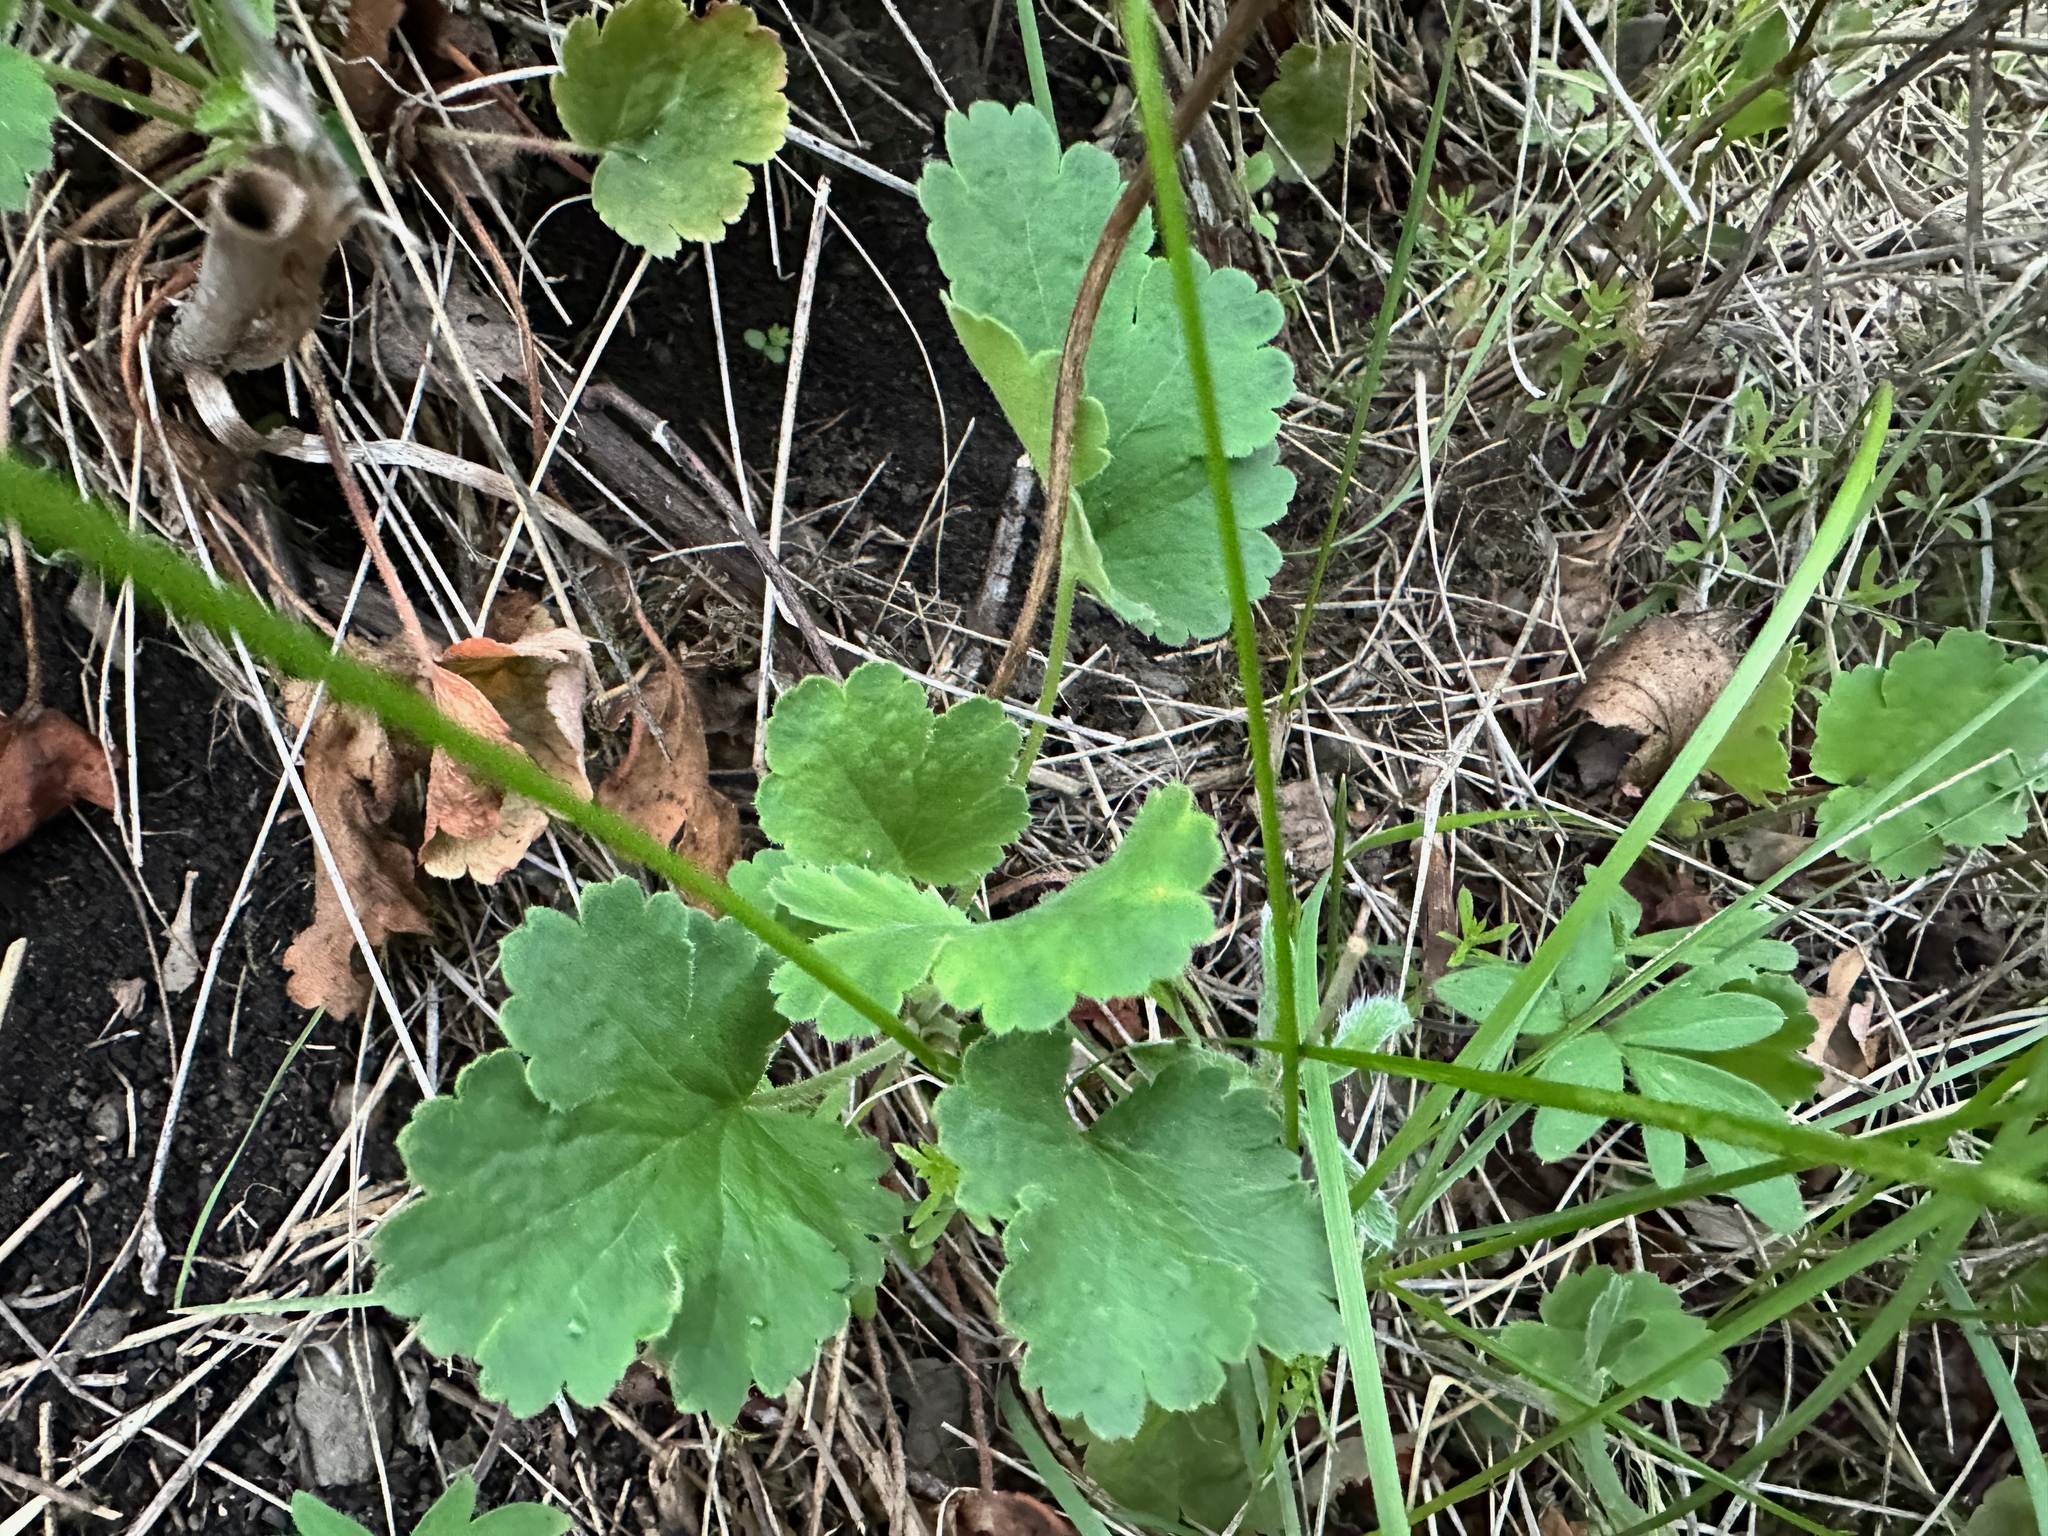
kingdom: Plantae
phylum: Tracheophyta
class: Magnoliopsida
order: Saxifragales
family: Saxifragaceae
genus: Heuchera
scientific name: Heuchera cylindrica
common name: Mat alumroot
